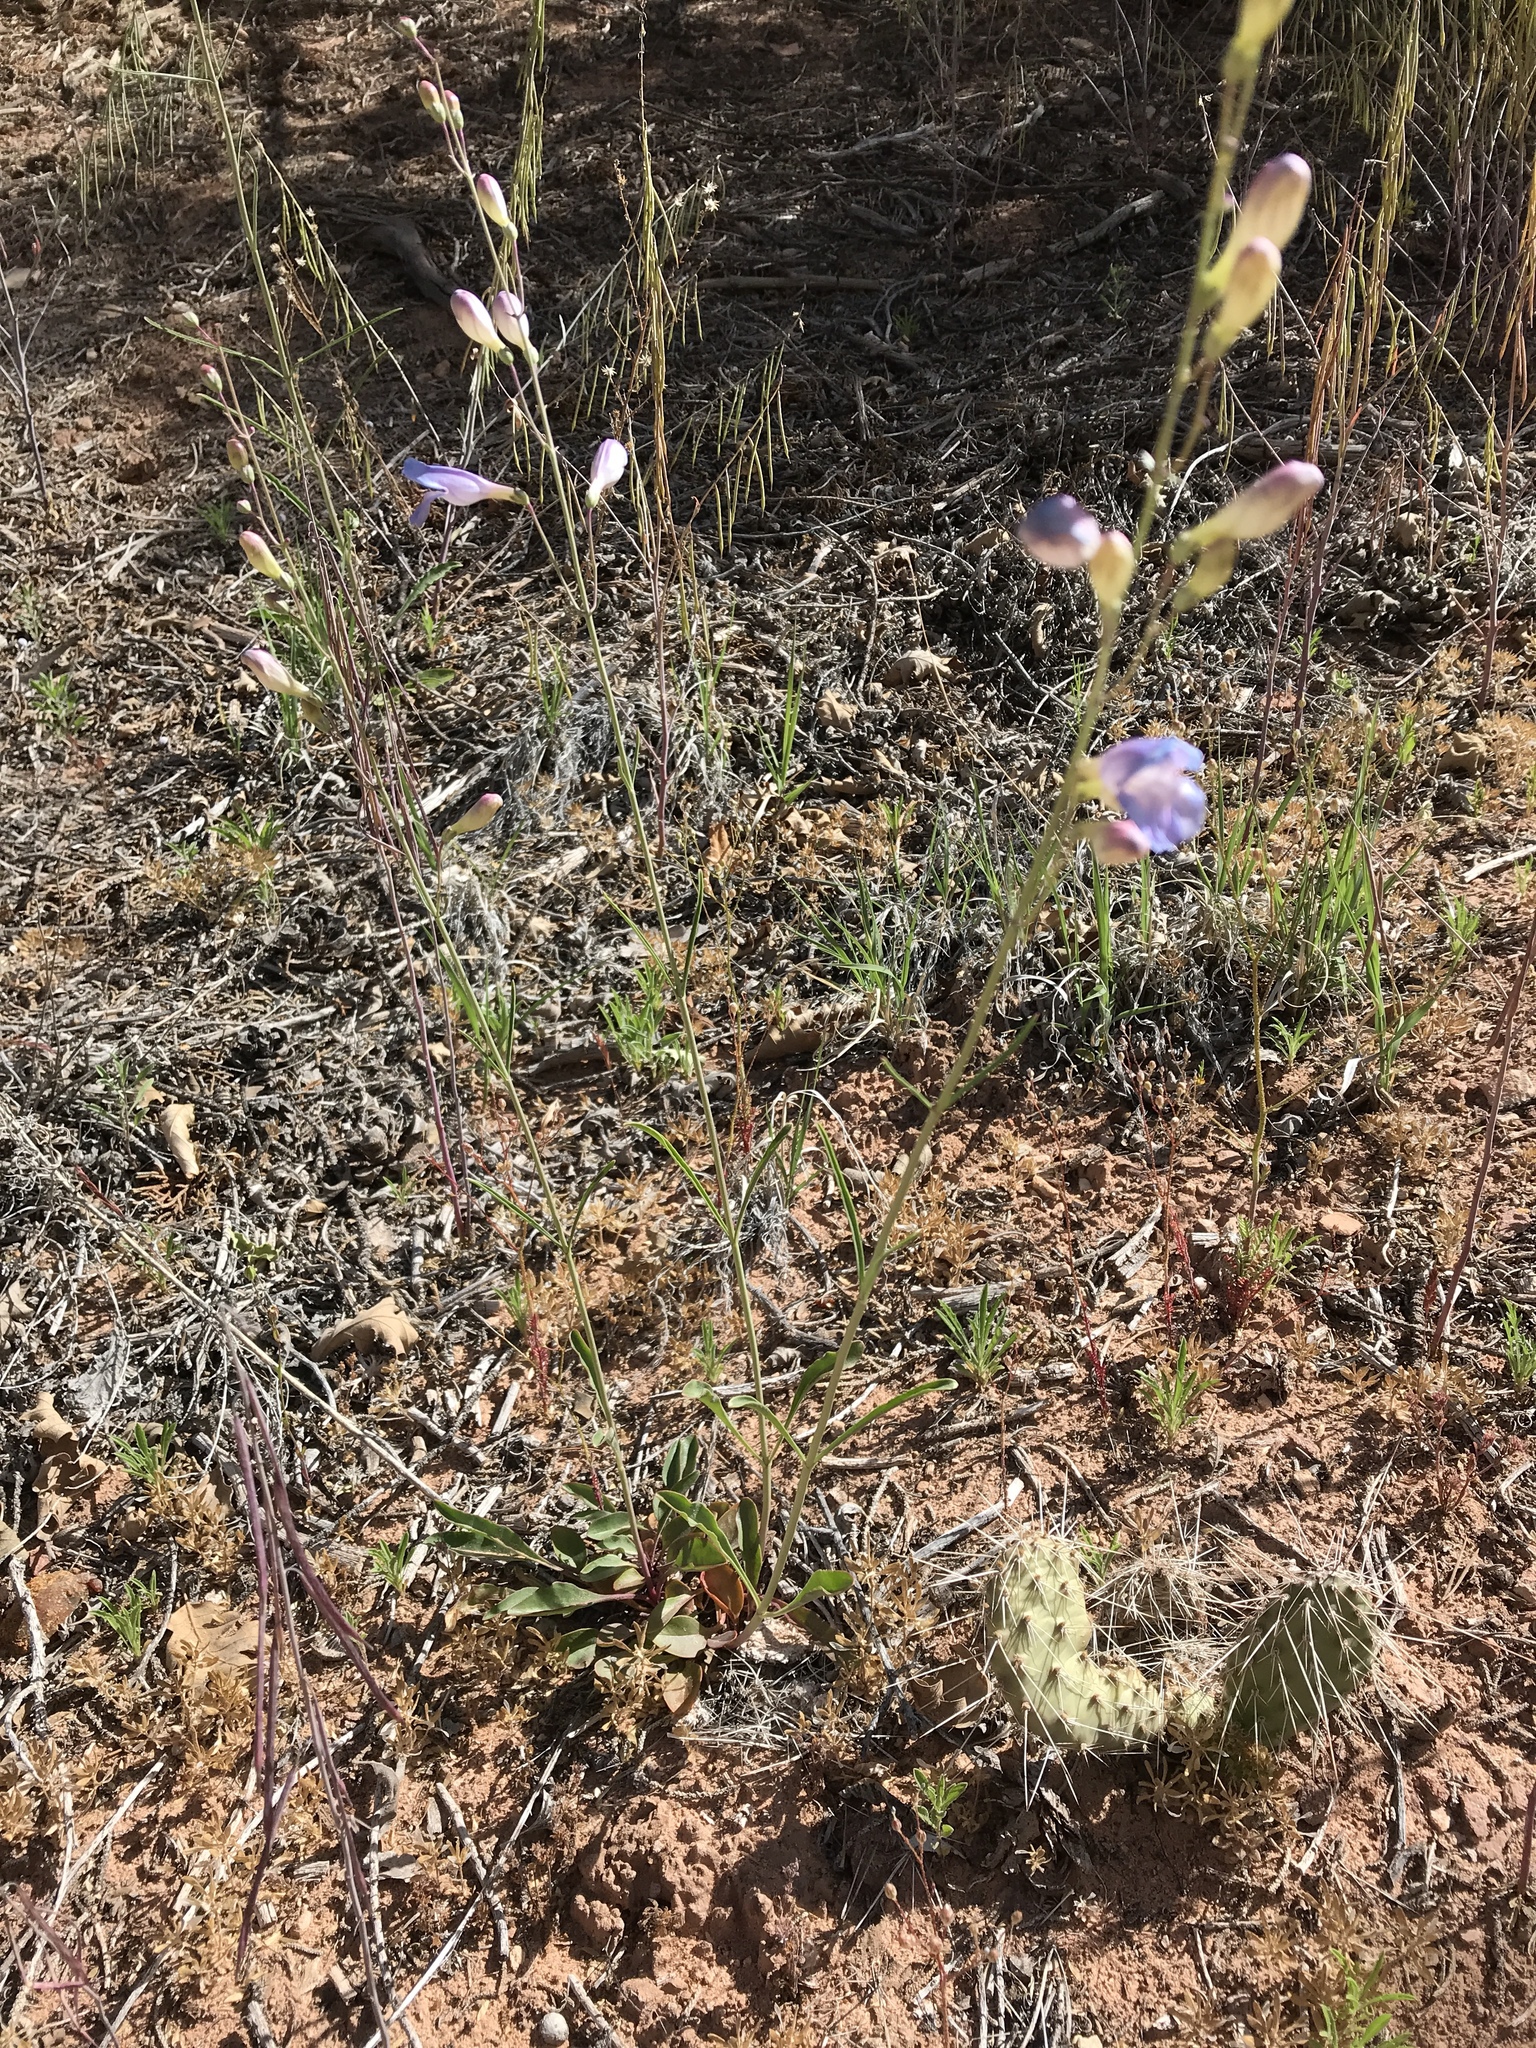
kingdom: Plantae
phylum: Tracheophyta
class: Magnoliopsida
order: Lamiales
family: Plantaginaceae
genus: Penstemon
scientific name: Penstemon comarrhenus
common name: Dusty penstemon
